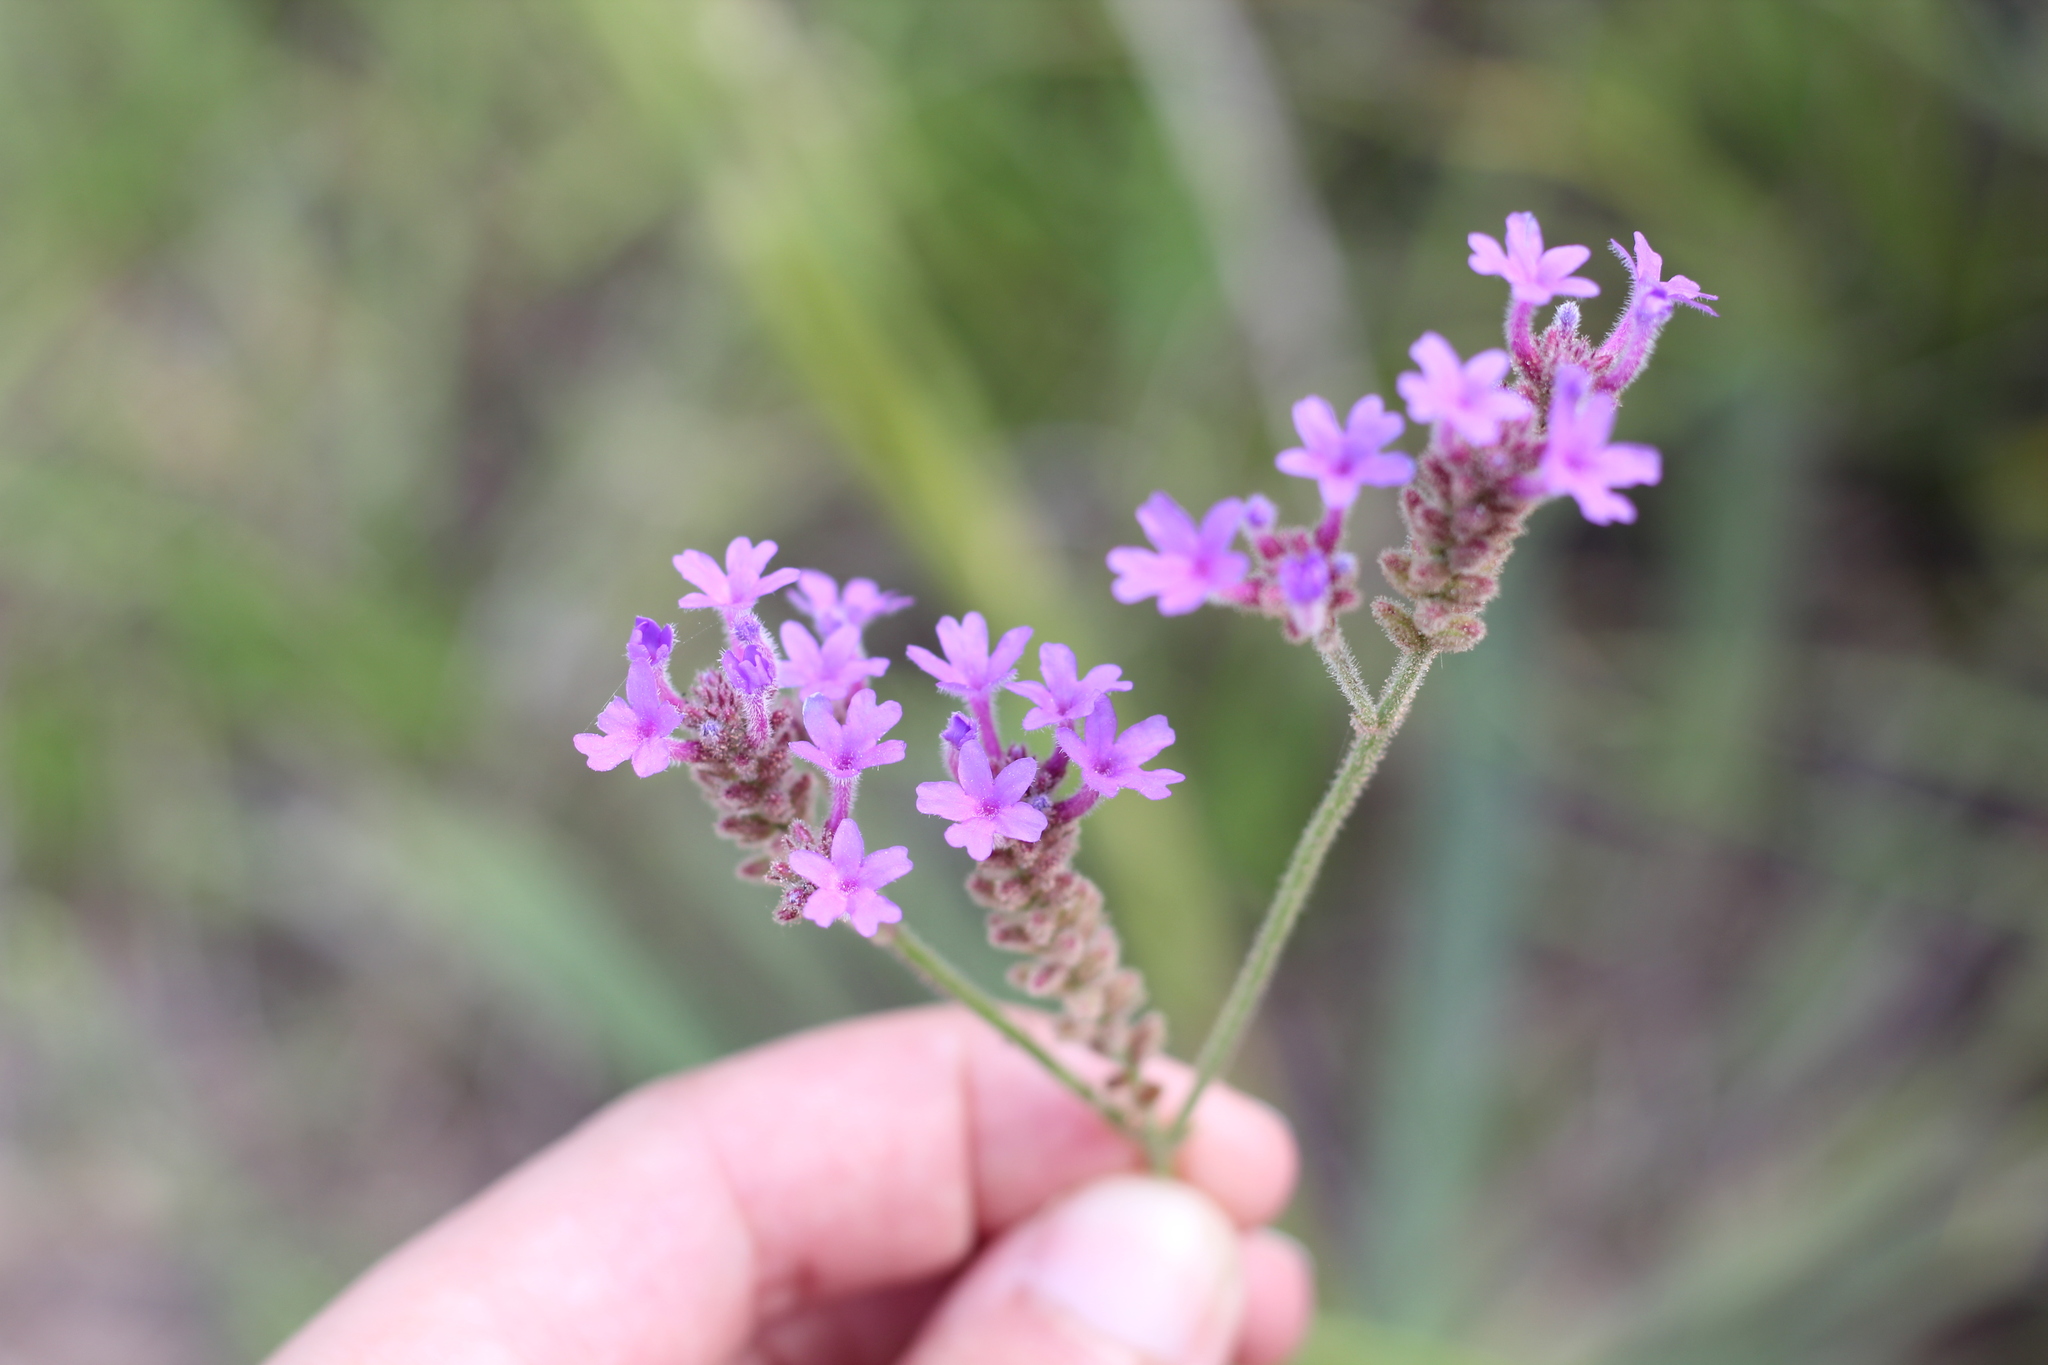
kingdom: Plantae
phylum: Tracheophyta
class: Magnoliopsida
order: Lamiales
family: Verbenaceae
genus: Verbena
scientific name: Verbena intermedia
